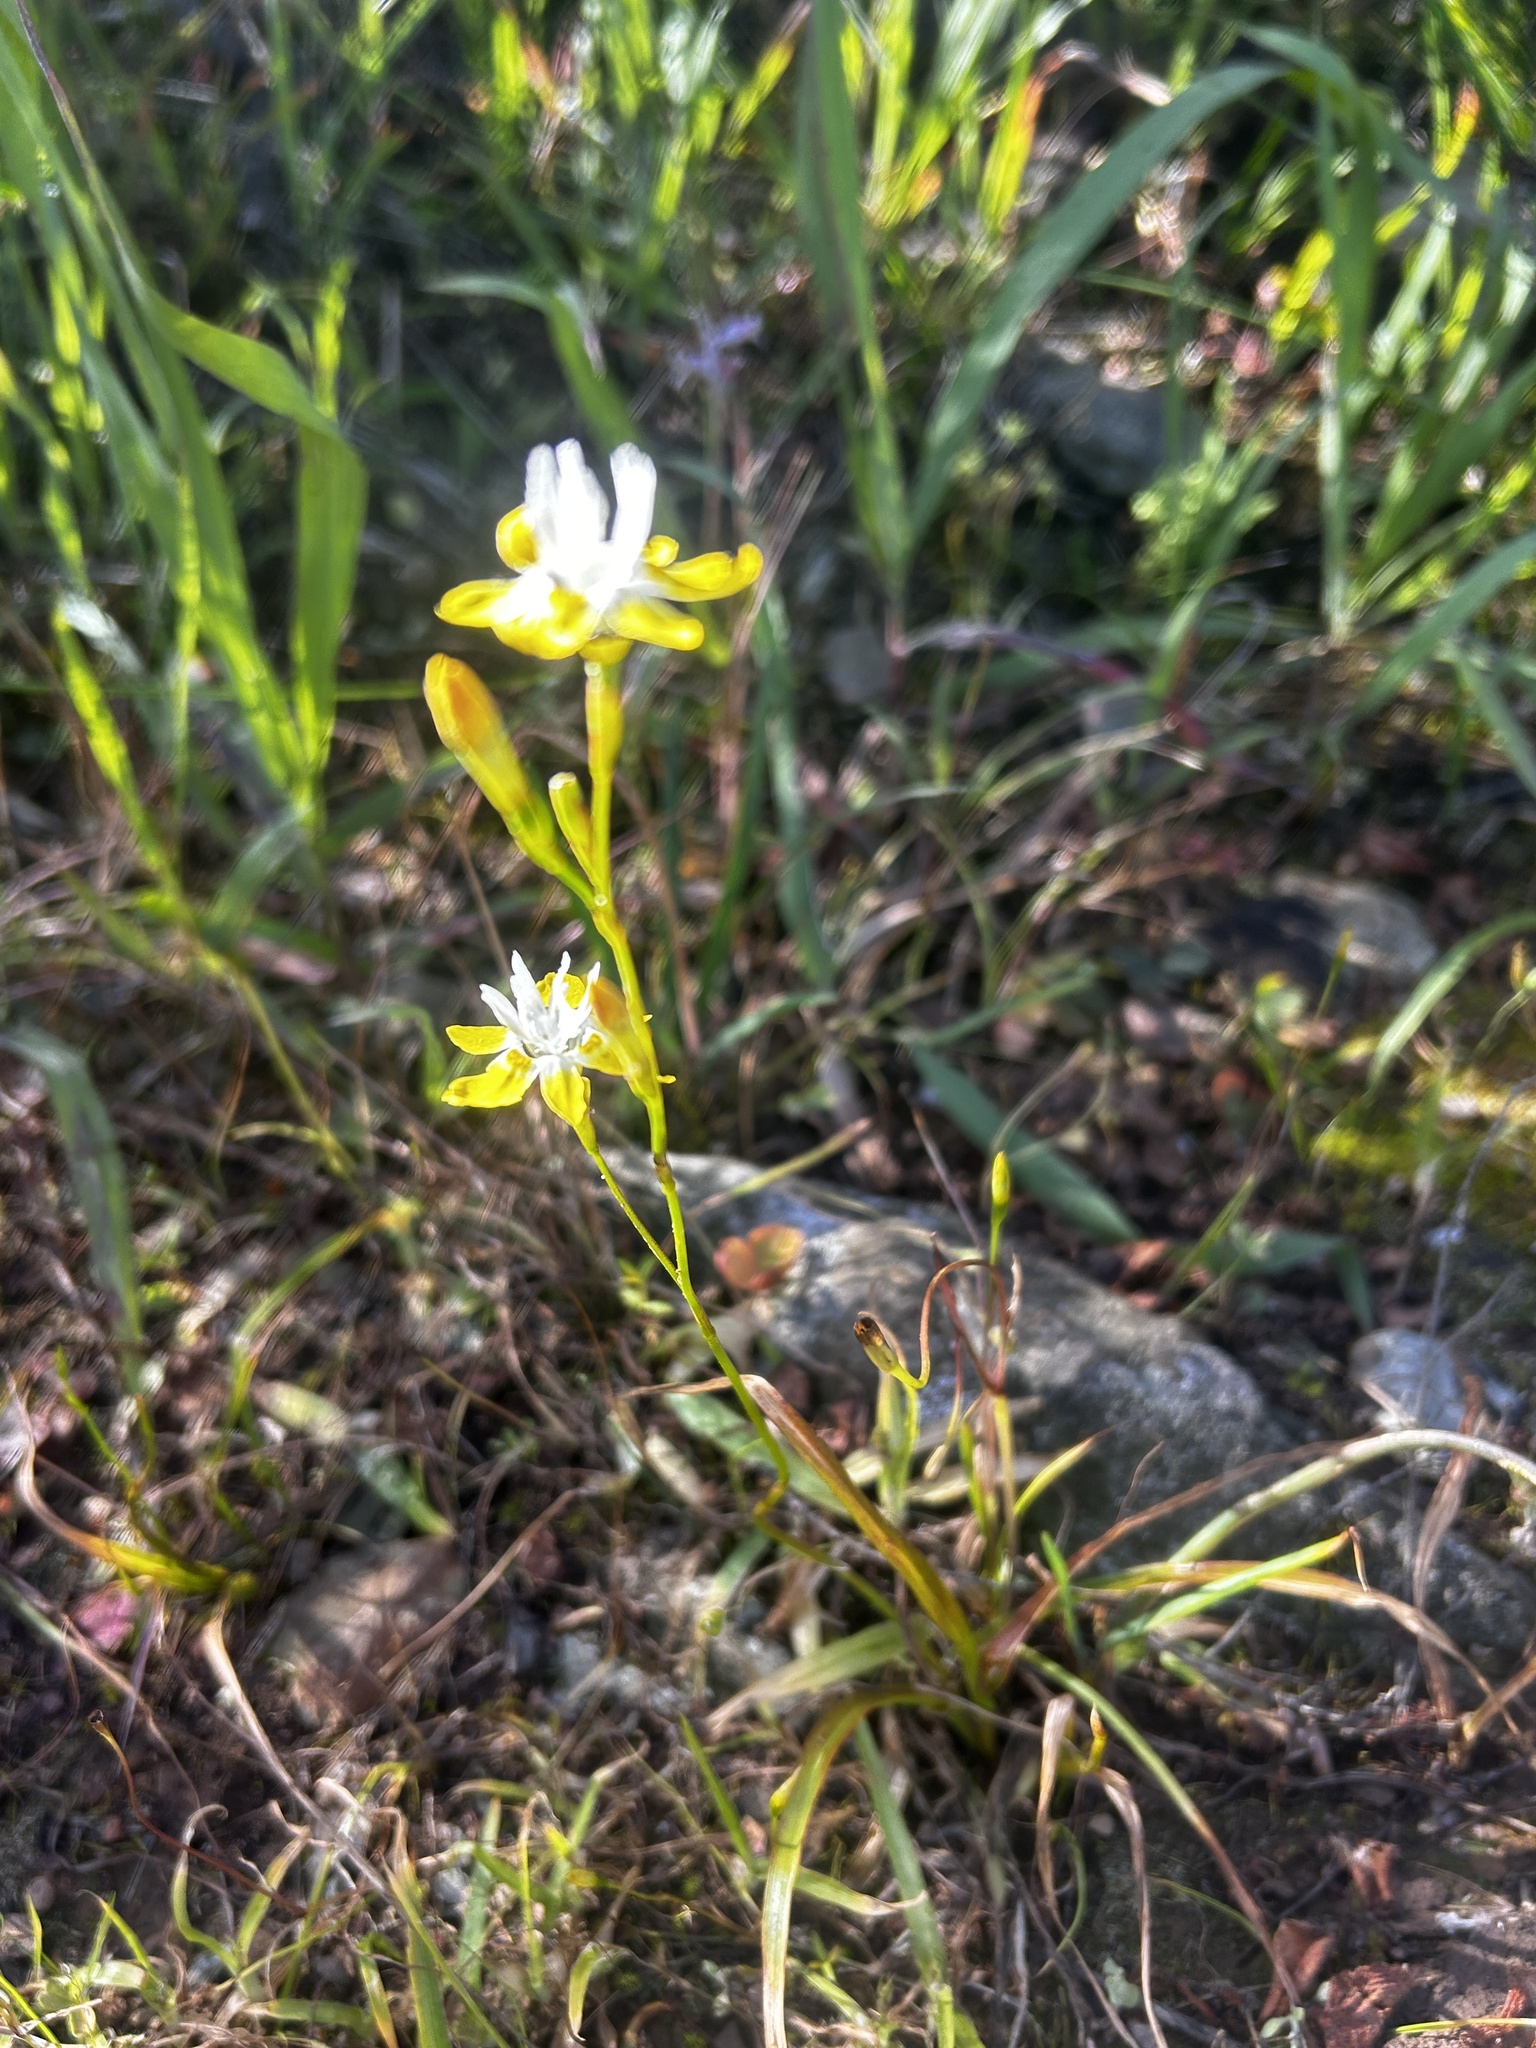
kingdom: Plantae
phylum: Tracheophyta
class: Liliopsida
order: Asparagales
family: Iridaceae
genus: Moraea
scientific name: Moraea gawleri
